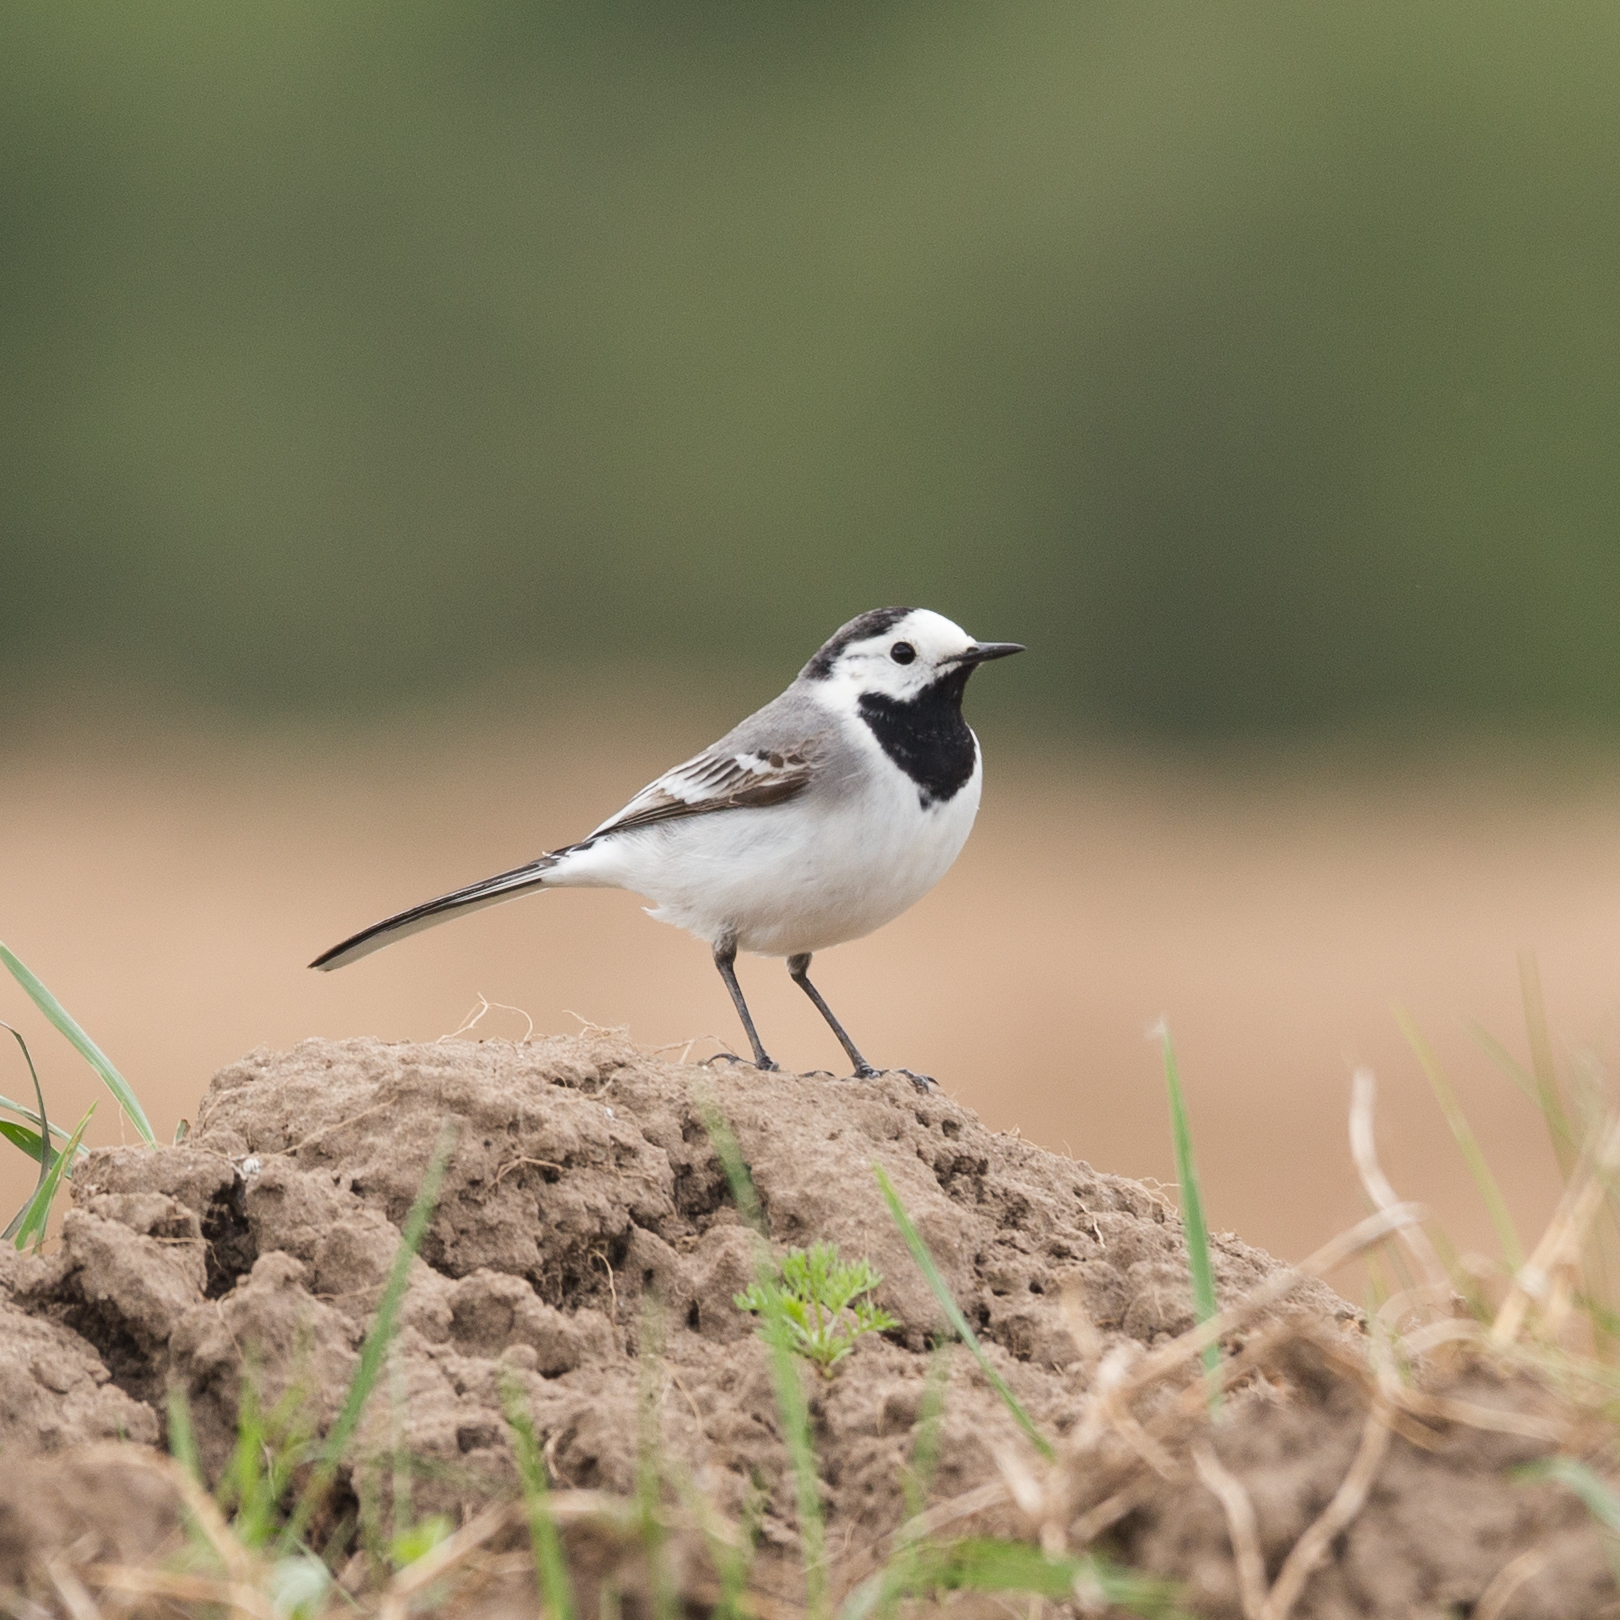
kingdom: Animalia
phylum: Chordata
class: Aves
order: Passeriformes
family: Motacillidae
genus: Motacilla
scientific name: Motacilla alba
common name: White wagtail
